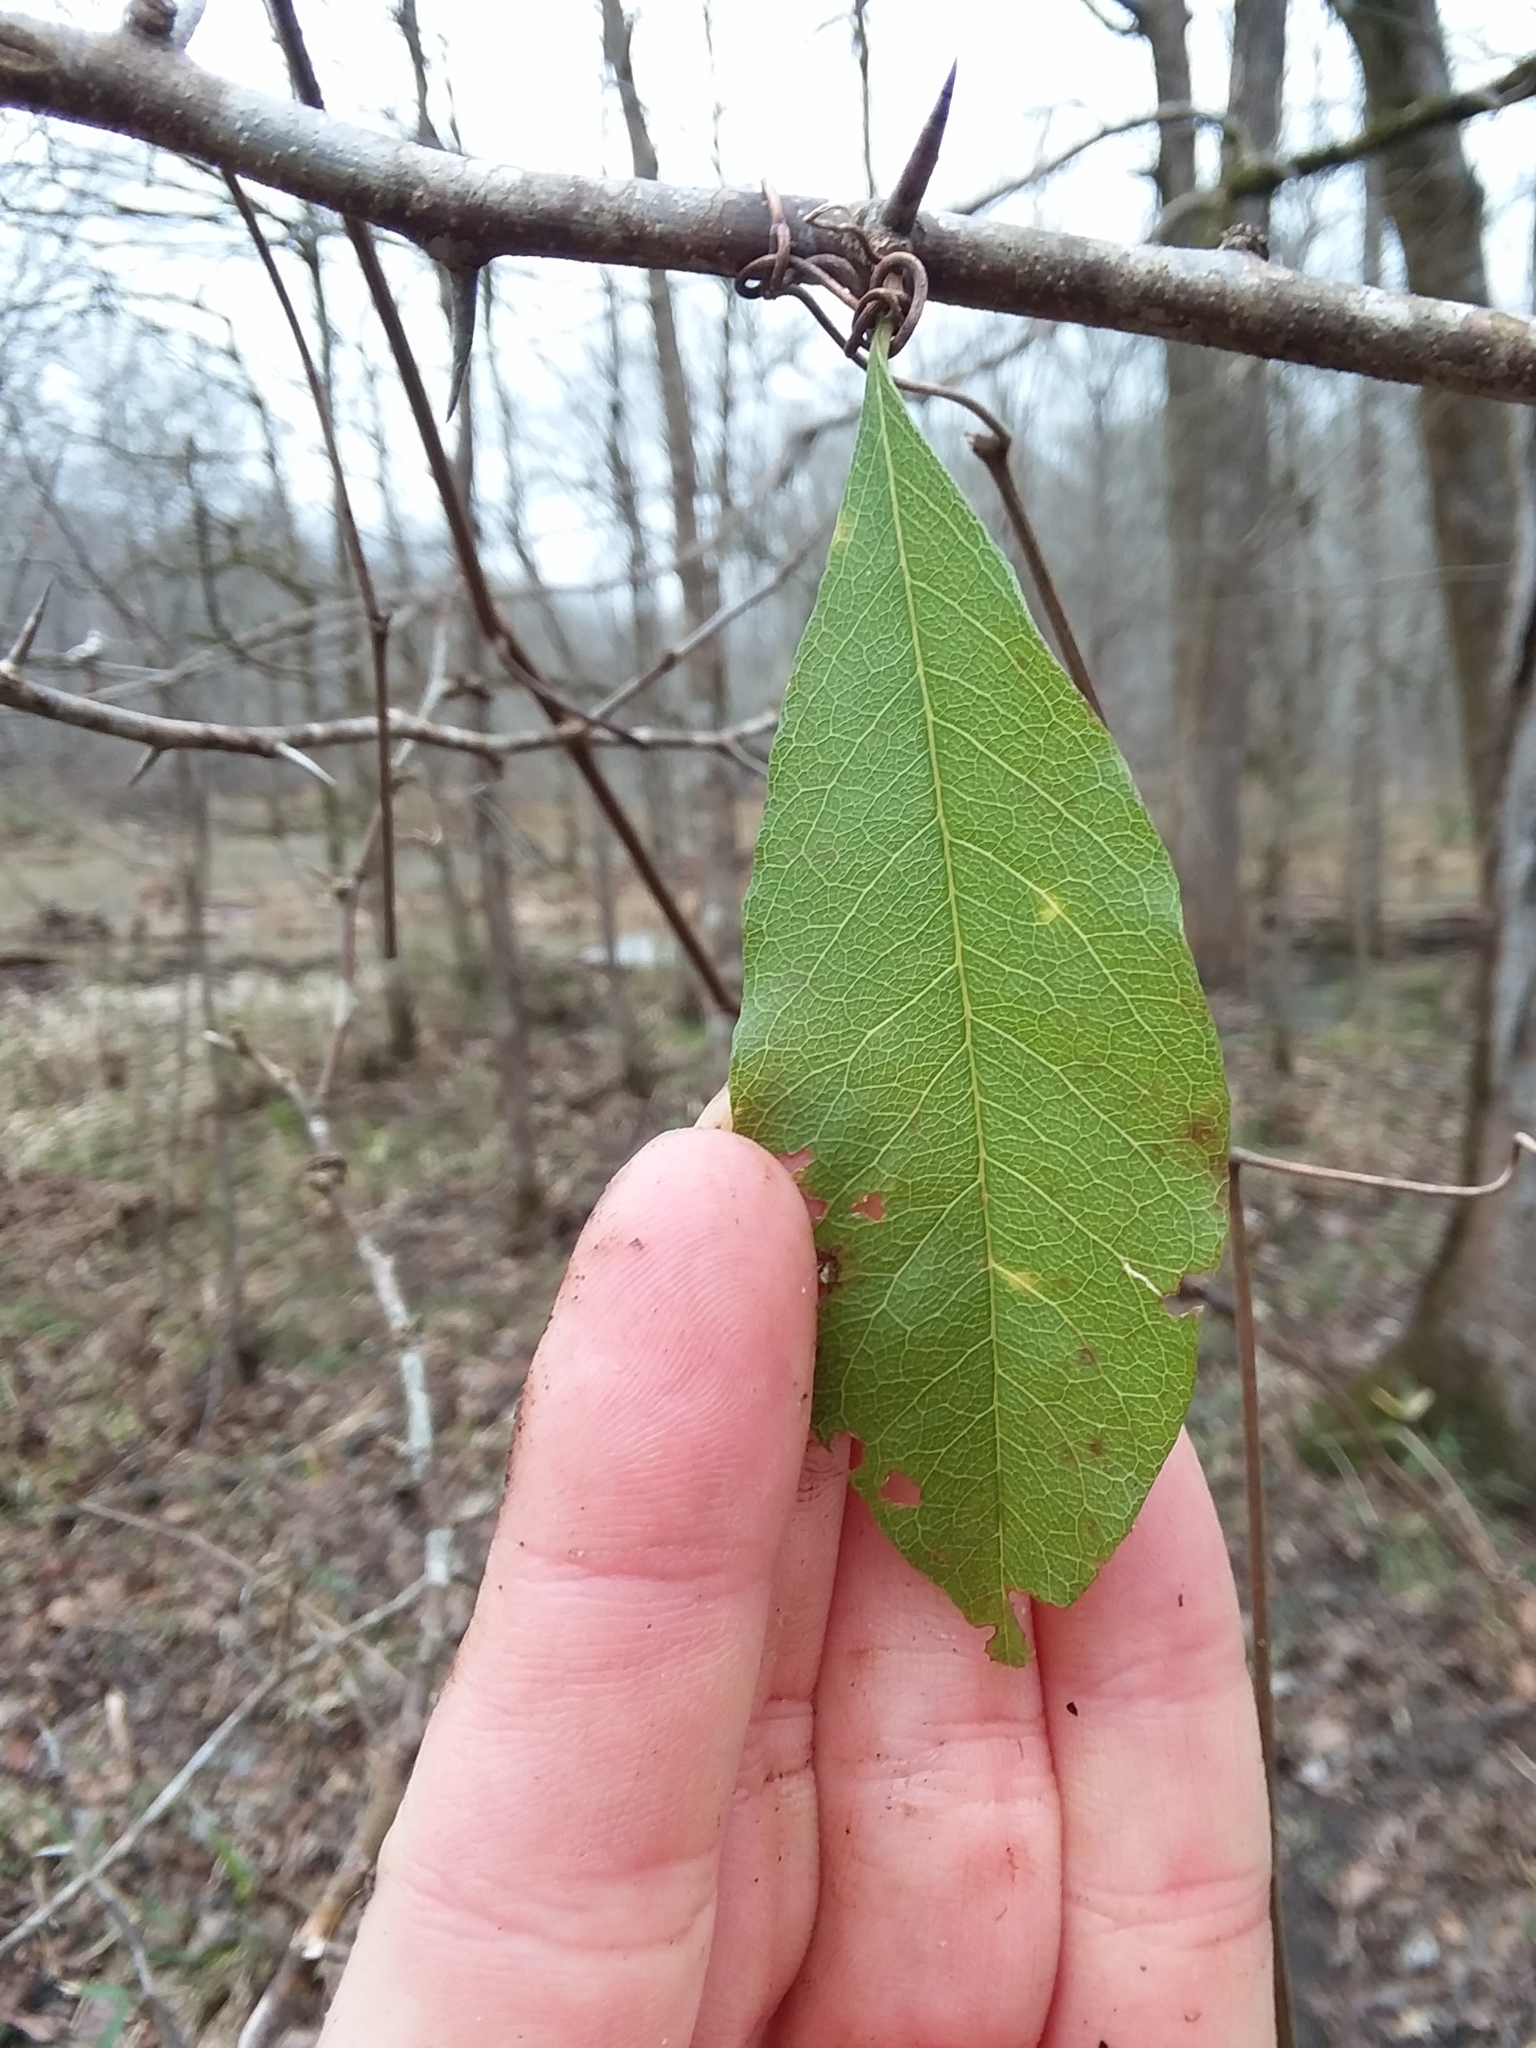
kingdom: Plantae
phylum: Tracheophyta
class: Magnoliopsida
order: Ericales
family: Sapotaceae
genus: Sideroxylon
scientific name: Sideroxylon lycioides
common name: Buckthorn bumelia
